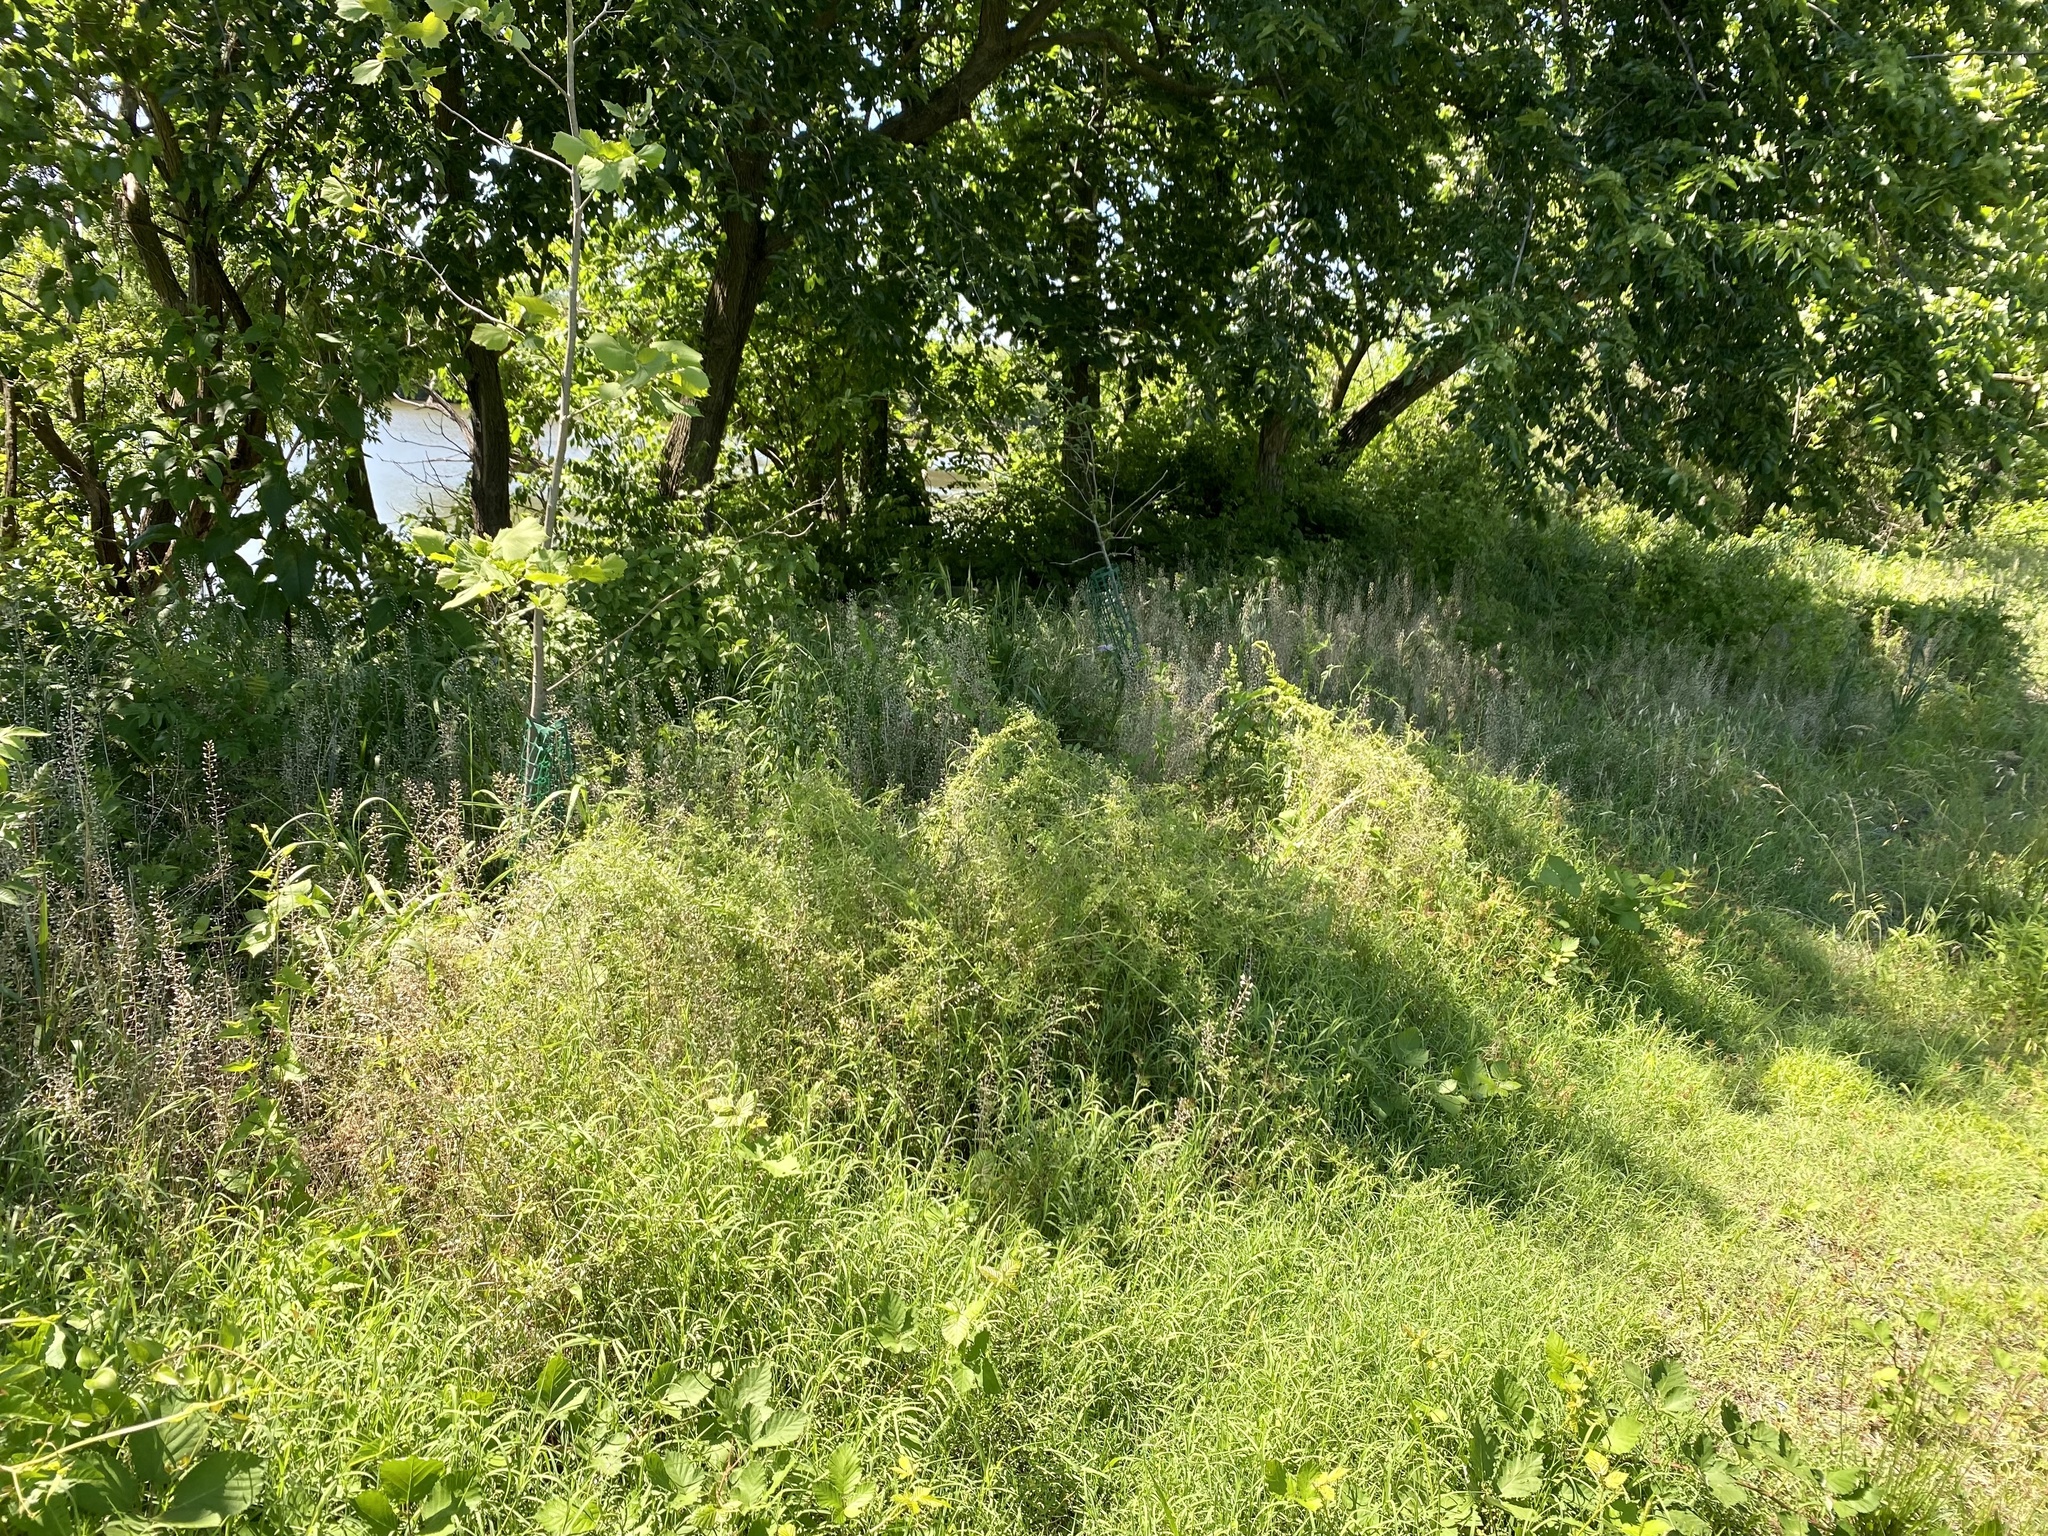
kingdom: Plantae
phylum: Tracheophyta
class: Magnoliopsida
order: Brassicales
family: Brassicaceae
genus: Mummenhoffia
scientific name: Mummenhoffia alliacea
